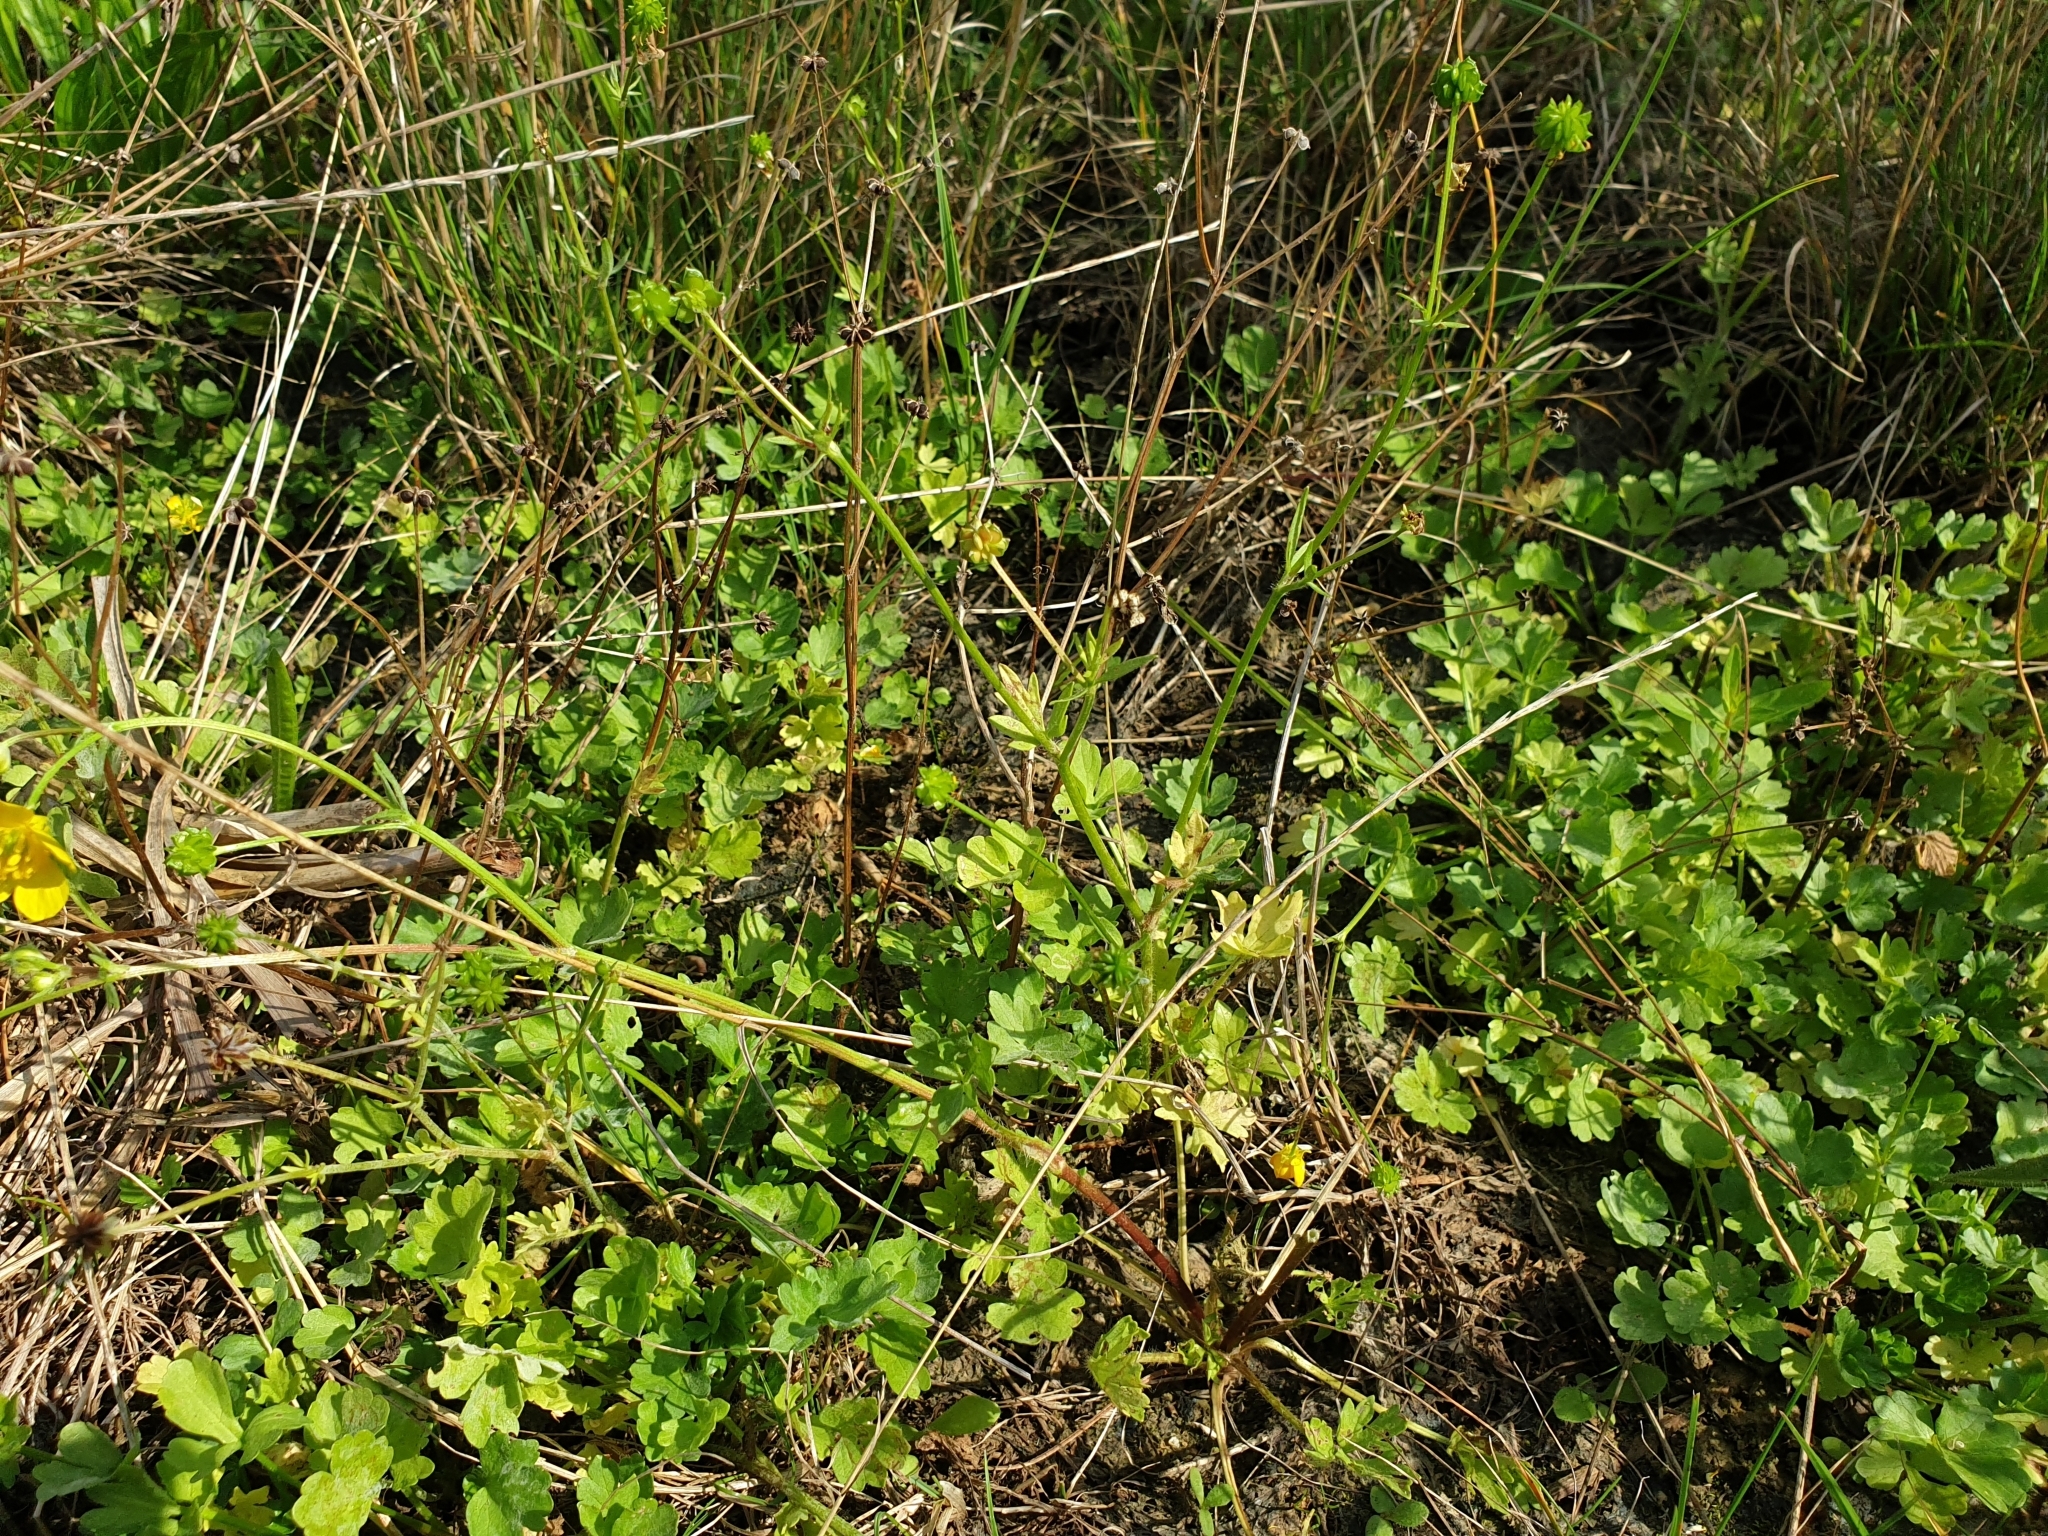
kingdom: Plantae
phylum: Tracheophyta
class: Magnoliopsida
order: Ranunculales
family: Ranunculaceae
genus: Ranunculus
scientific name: Ranunculus sardous
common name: Hairy buttercup
